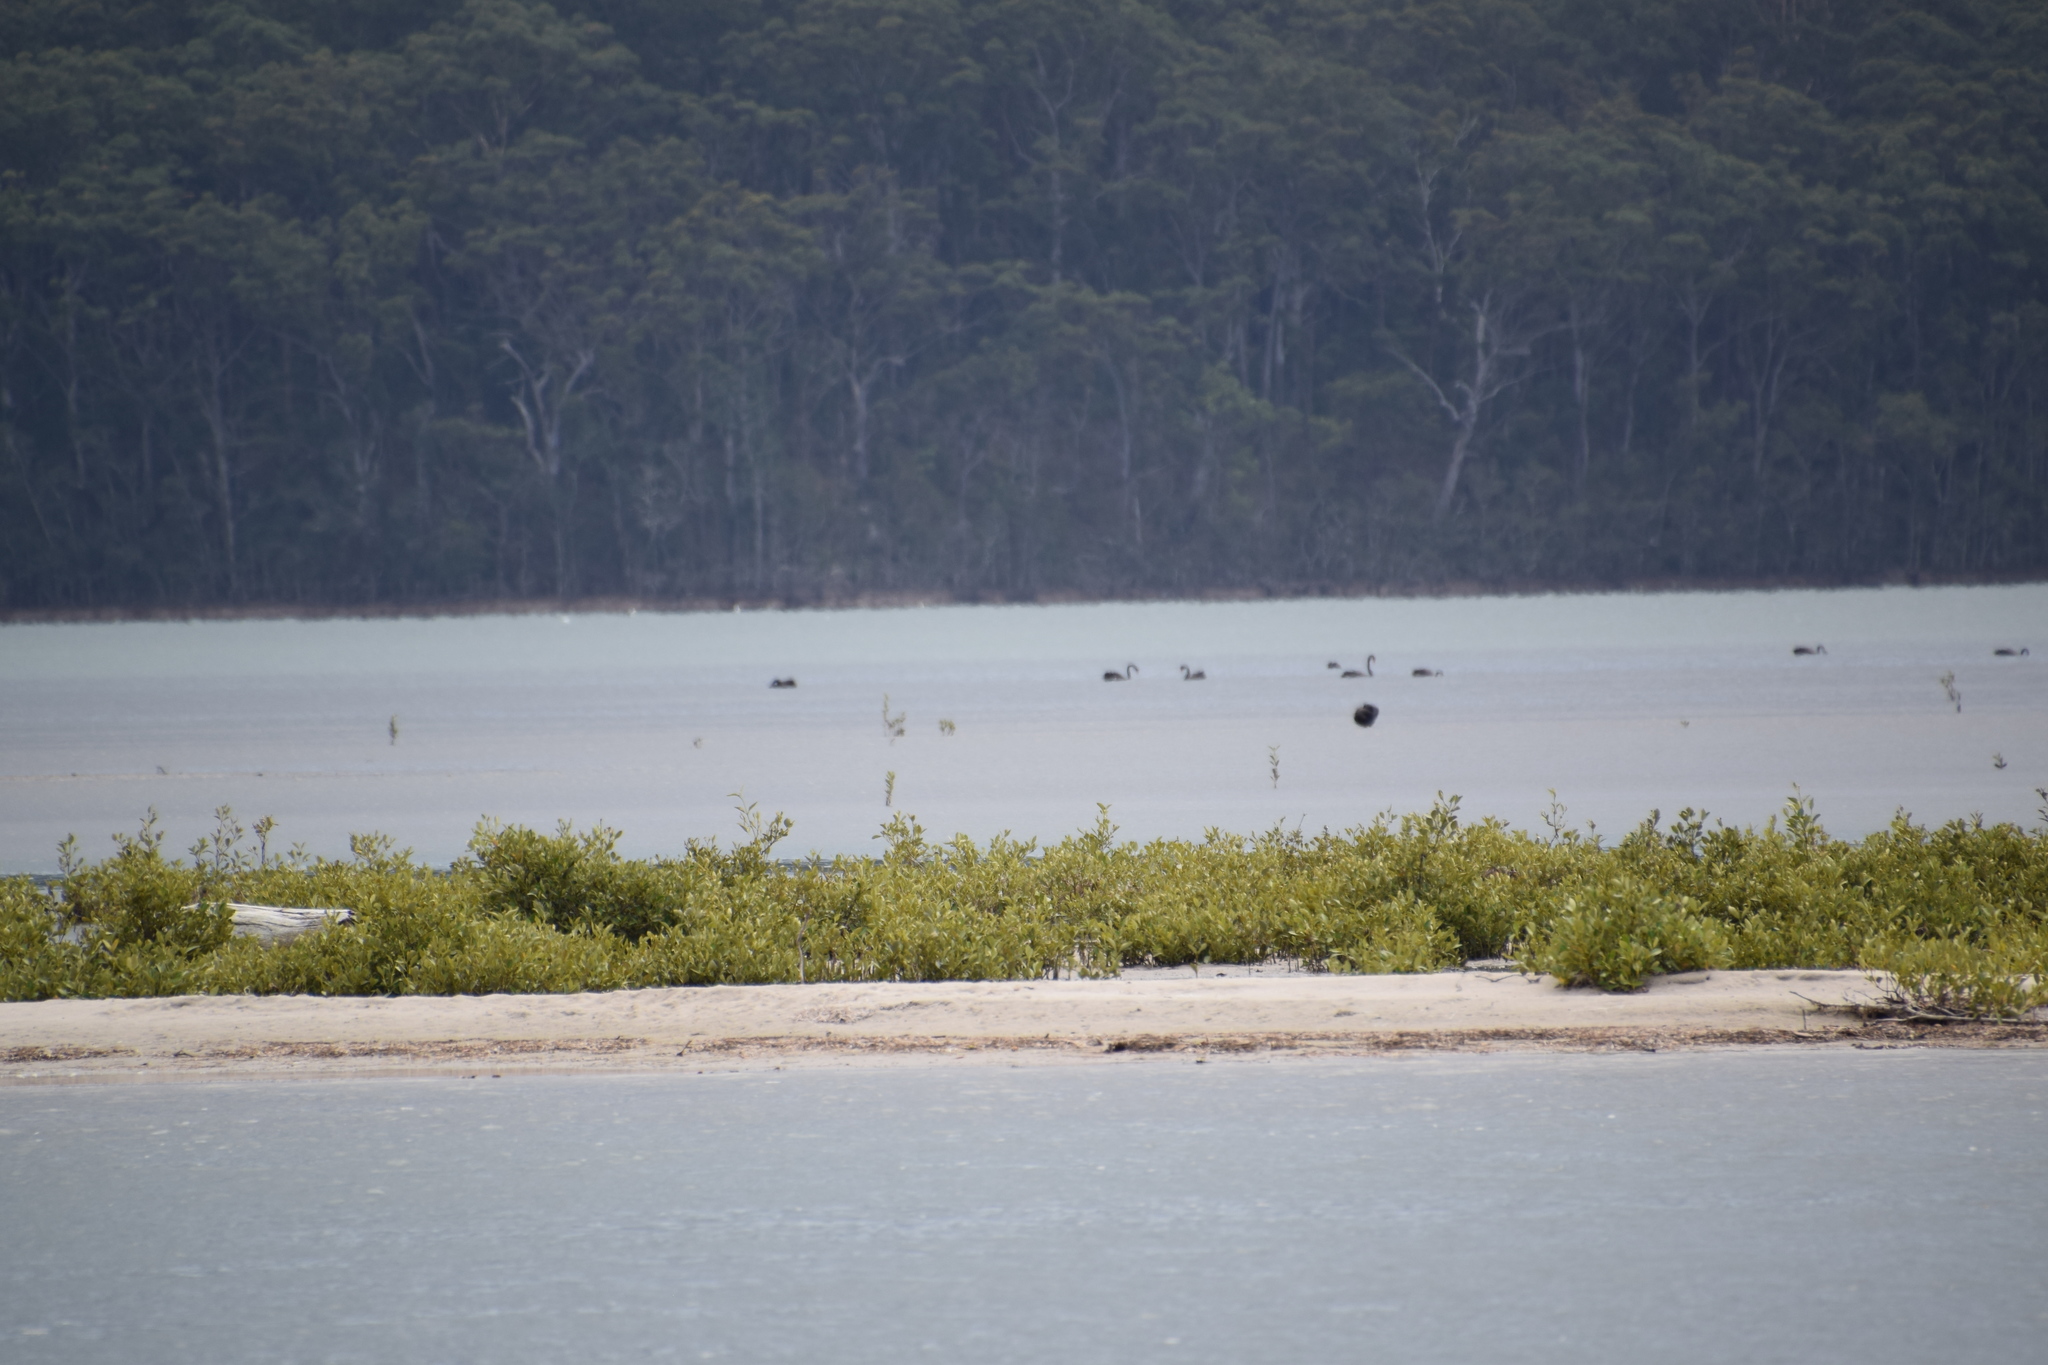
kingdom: Animalia
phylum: Chordata
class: Aves
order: Anseriformes
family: Anatidae
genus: Cygnus
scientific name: Cygnus atratus
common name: Black swan
